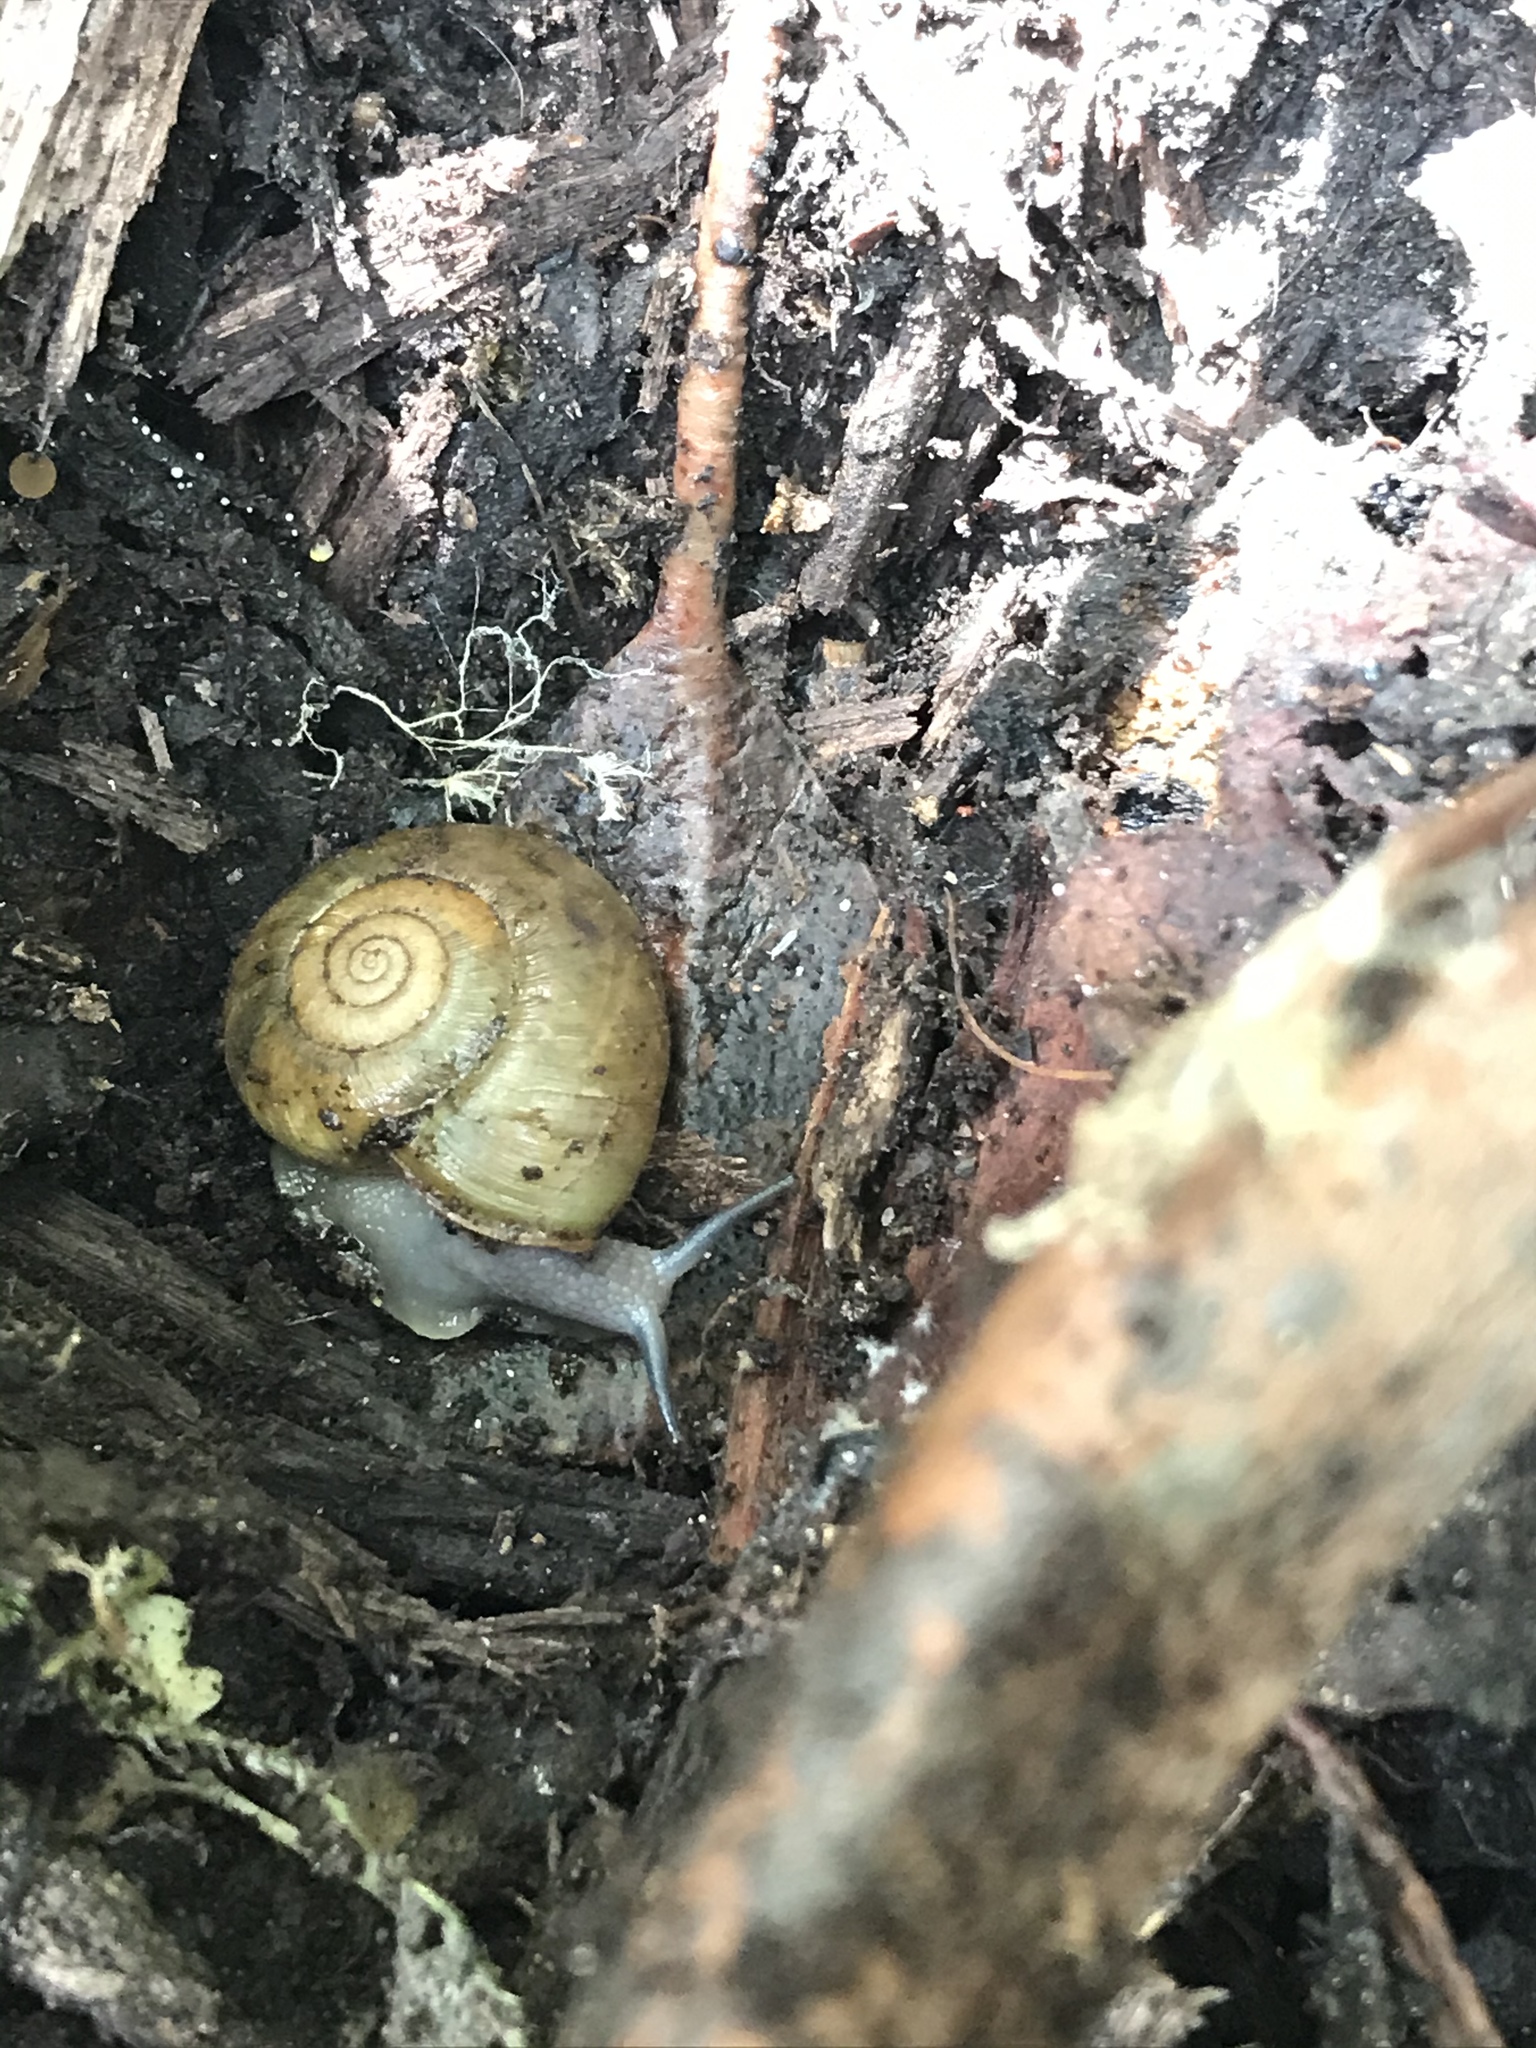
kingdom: Animalia
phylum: Mollusca
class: Gastropoda
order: Stylommatophora
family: Haplotrematidae
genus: Haplotrema
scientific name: Haplotrema minimum
